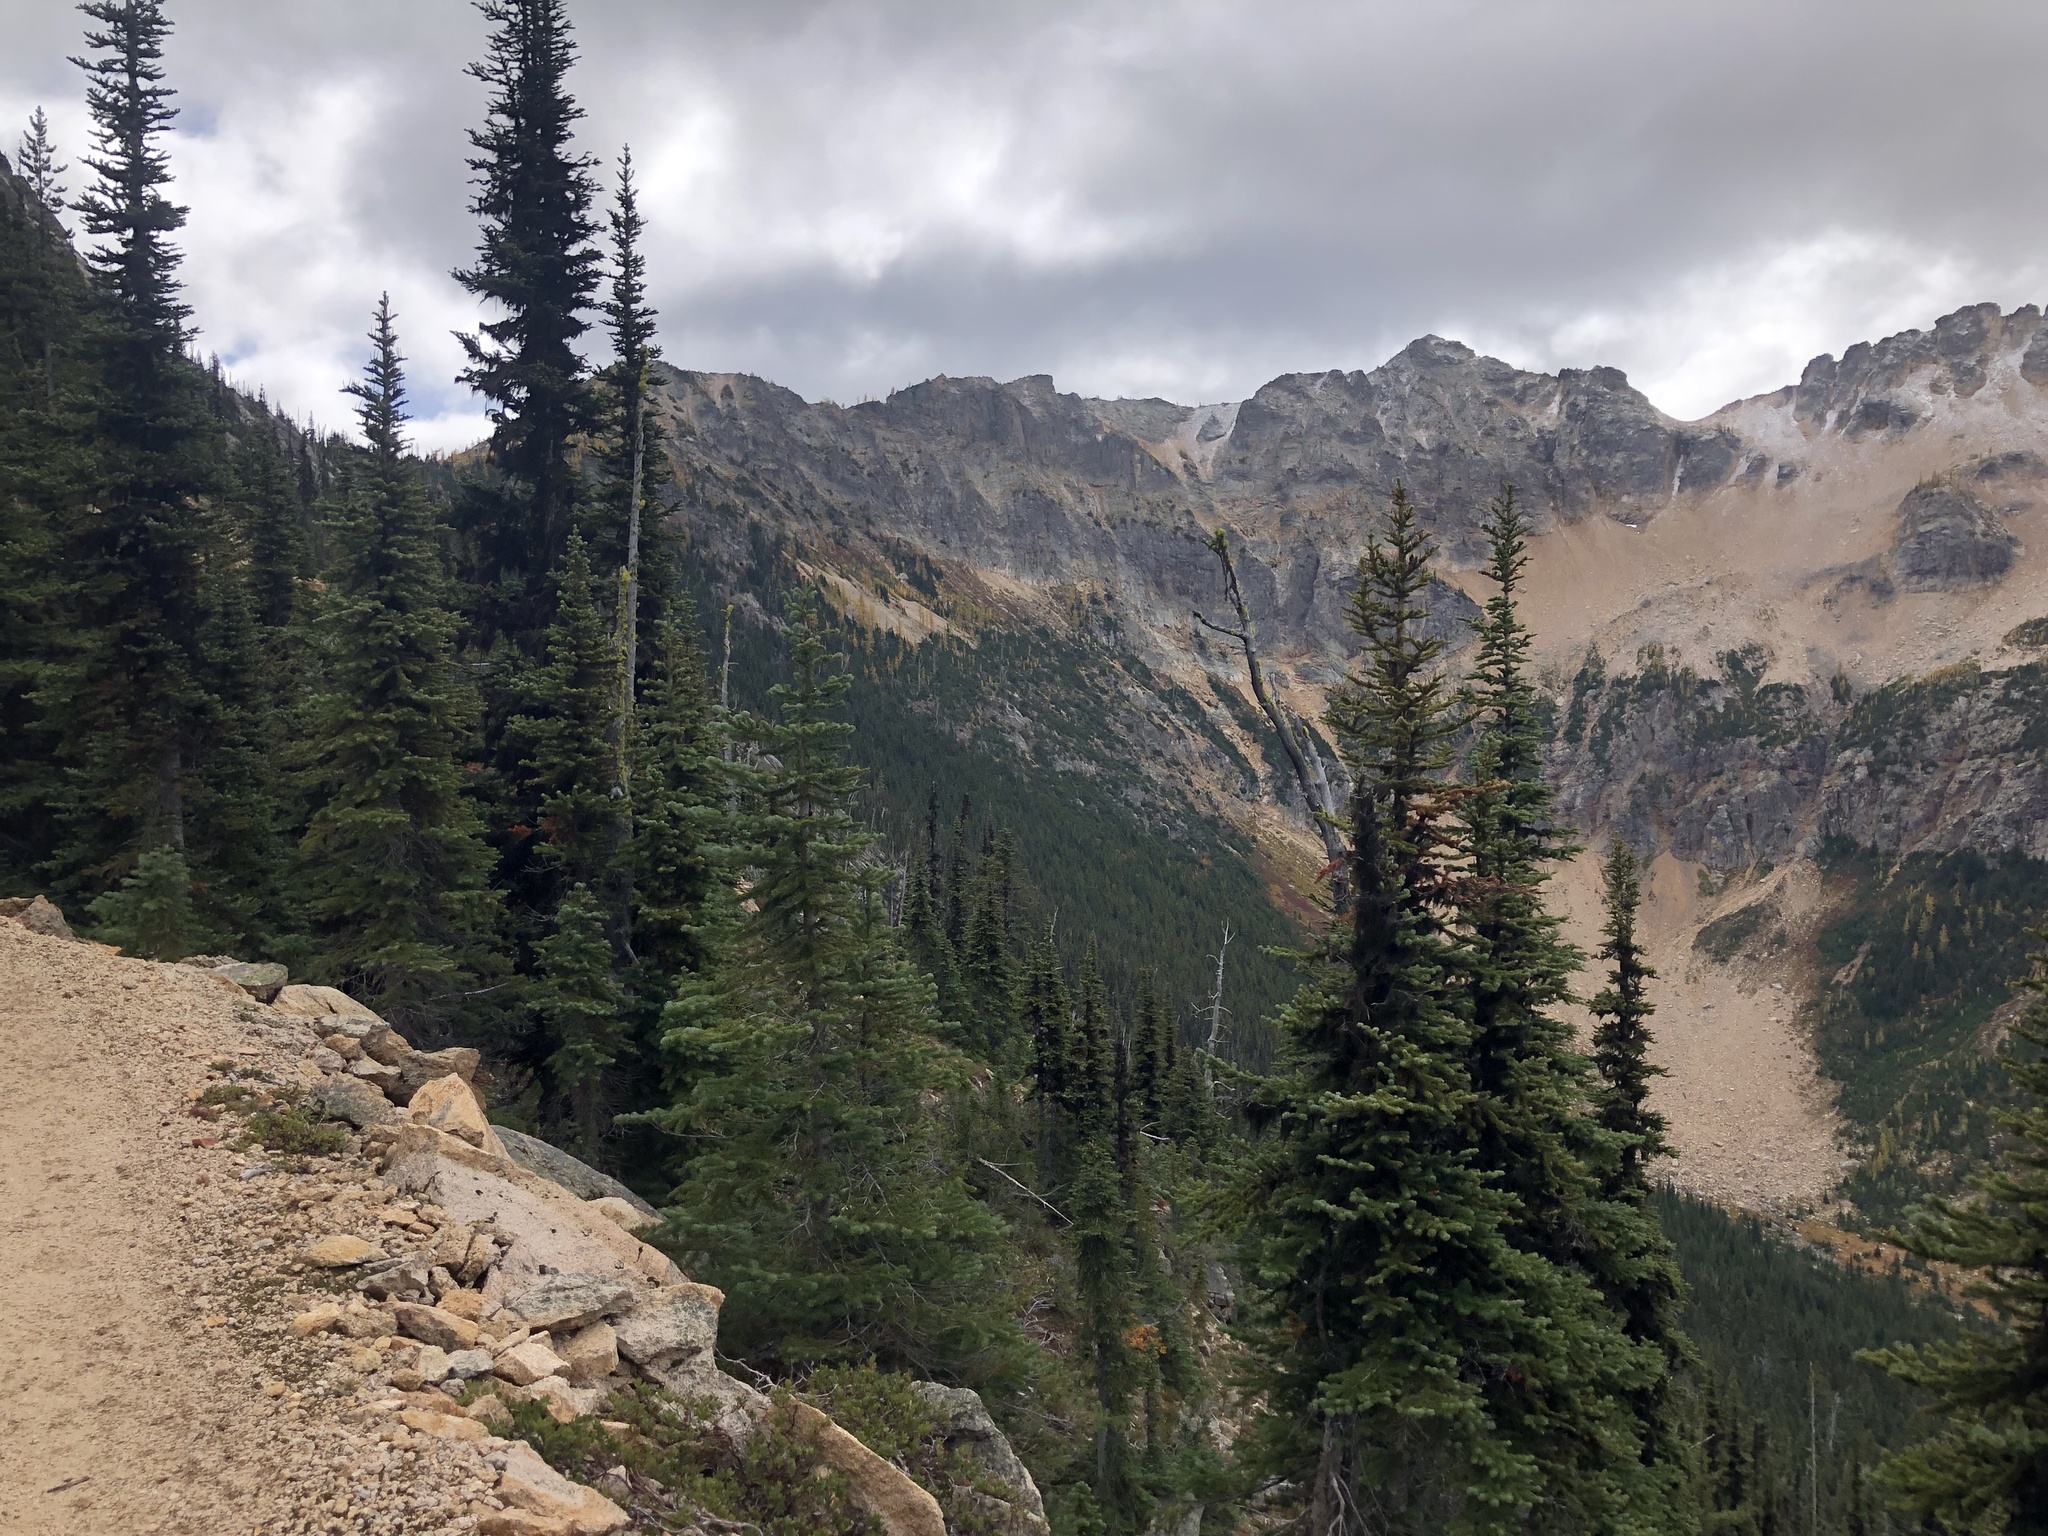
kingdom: Plantae
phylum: Tracheophyta
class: Pinopsida
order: Pinales
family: Pinaceae
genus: Abies
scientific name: Abies lasiocarpa
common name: Subalpine fir
